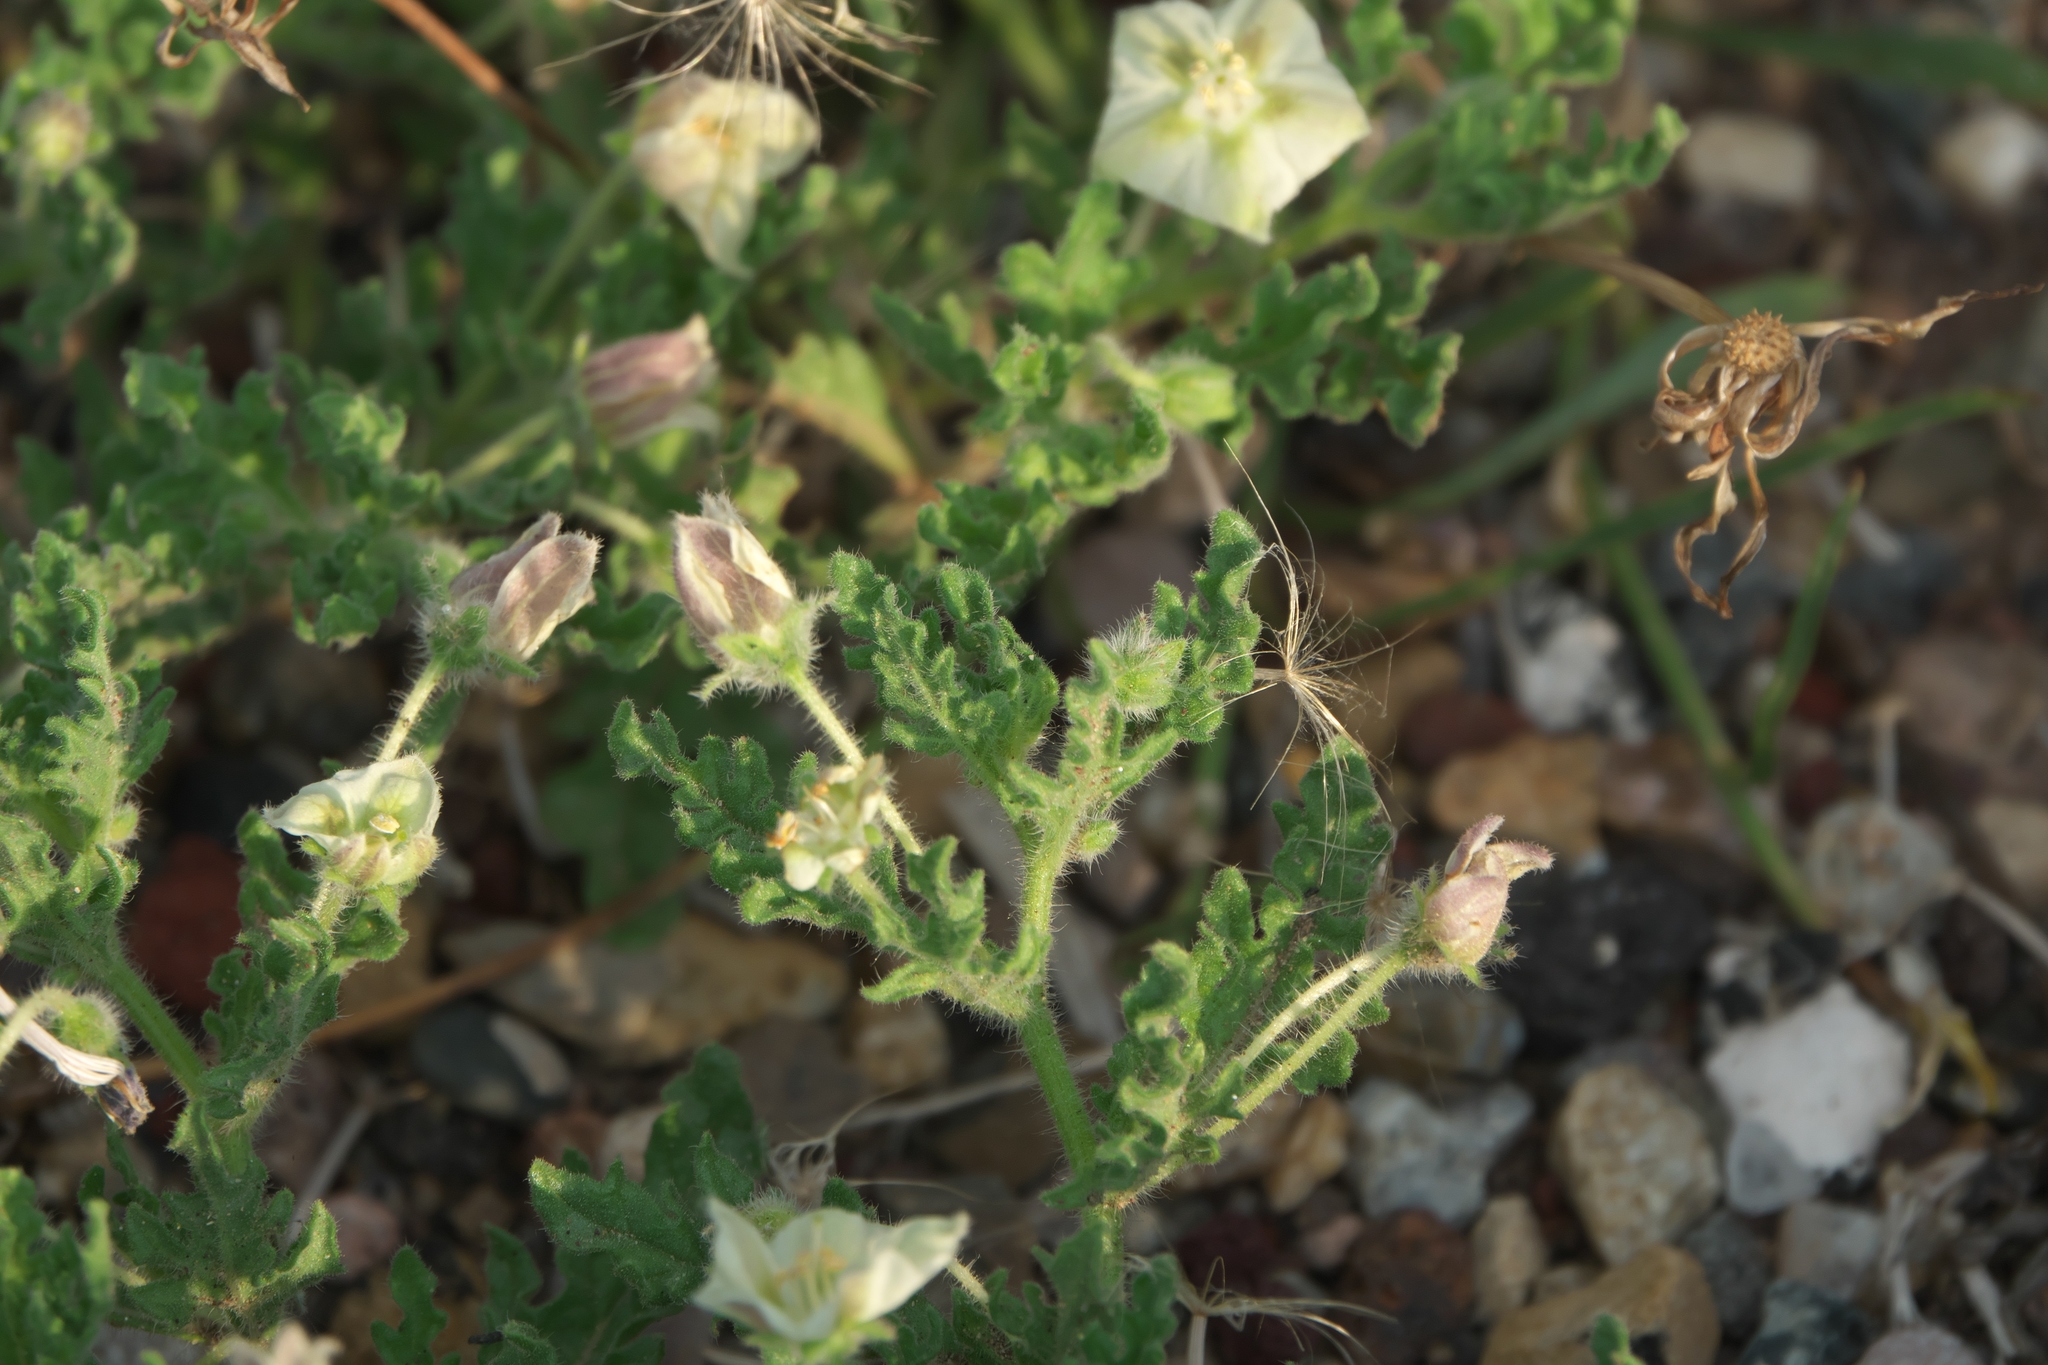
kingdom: Plantae
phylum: Tracheophyta
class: Magnoliopsida
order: Solanales
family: Solanaceae
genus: Chamaesaracha
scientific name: Chamaesaracha coniodes
